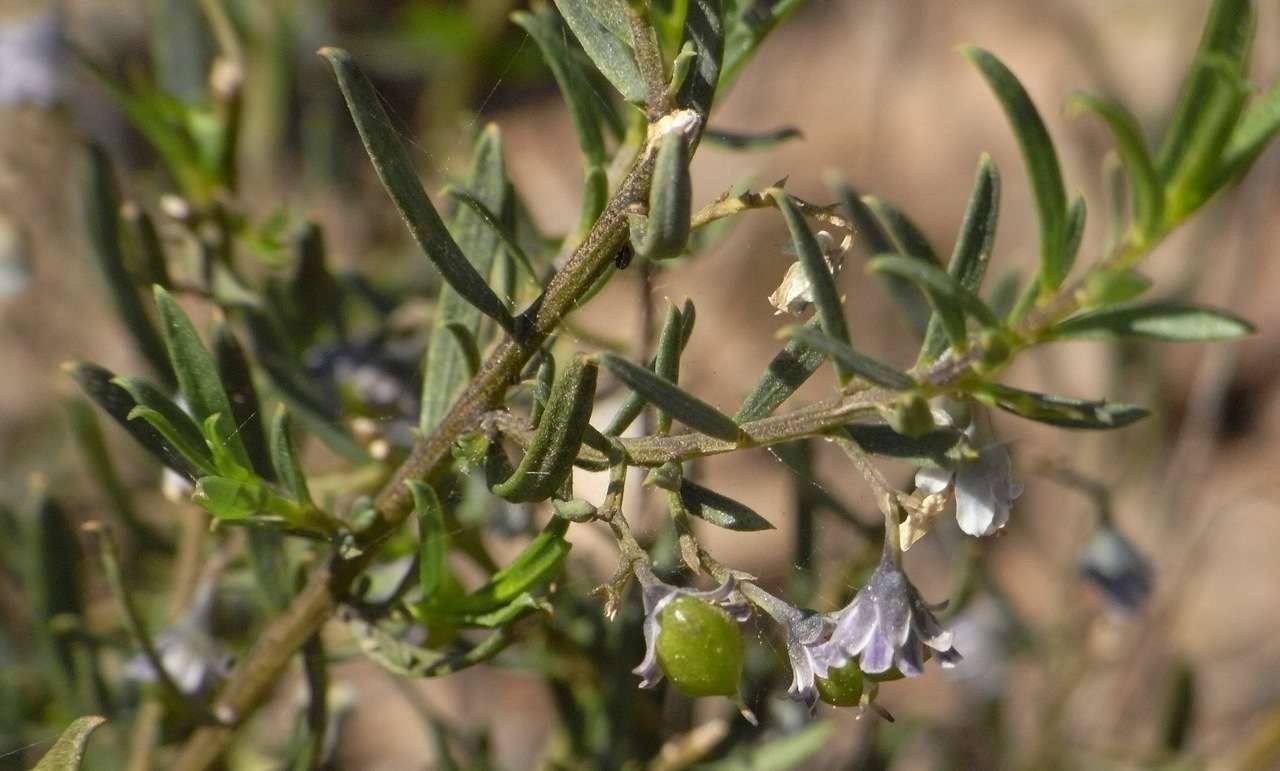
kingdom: Plantae
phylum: Tracheophyta
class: Magnoliopsida
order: Malpighiales
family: Violaceae
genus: Pigea
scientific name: Pigea floribunda
